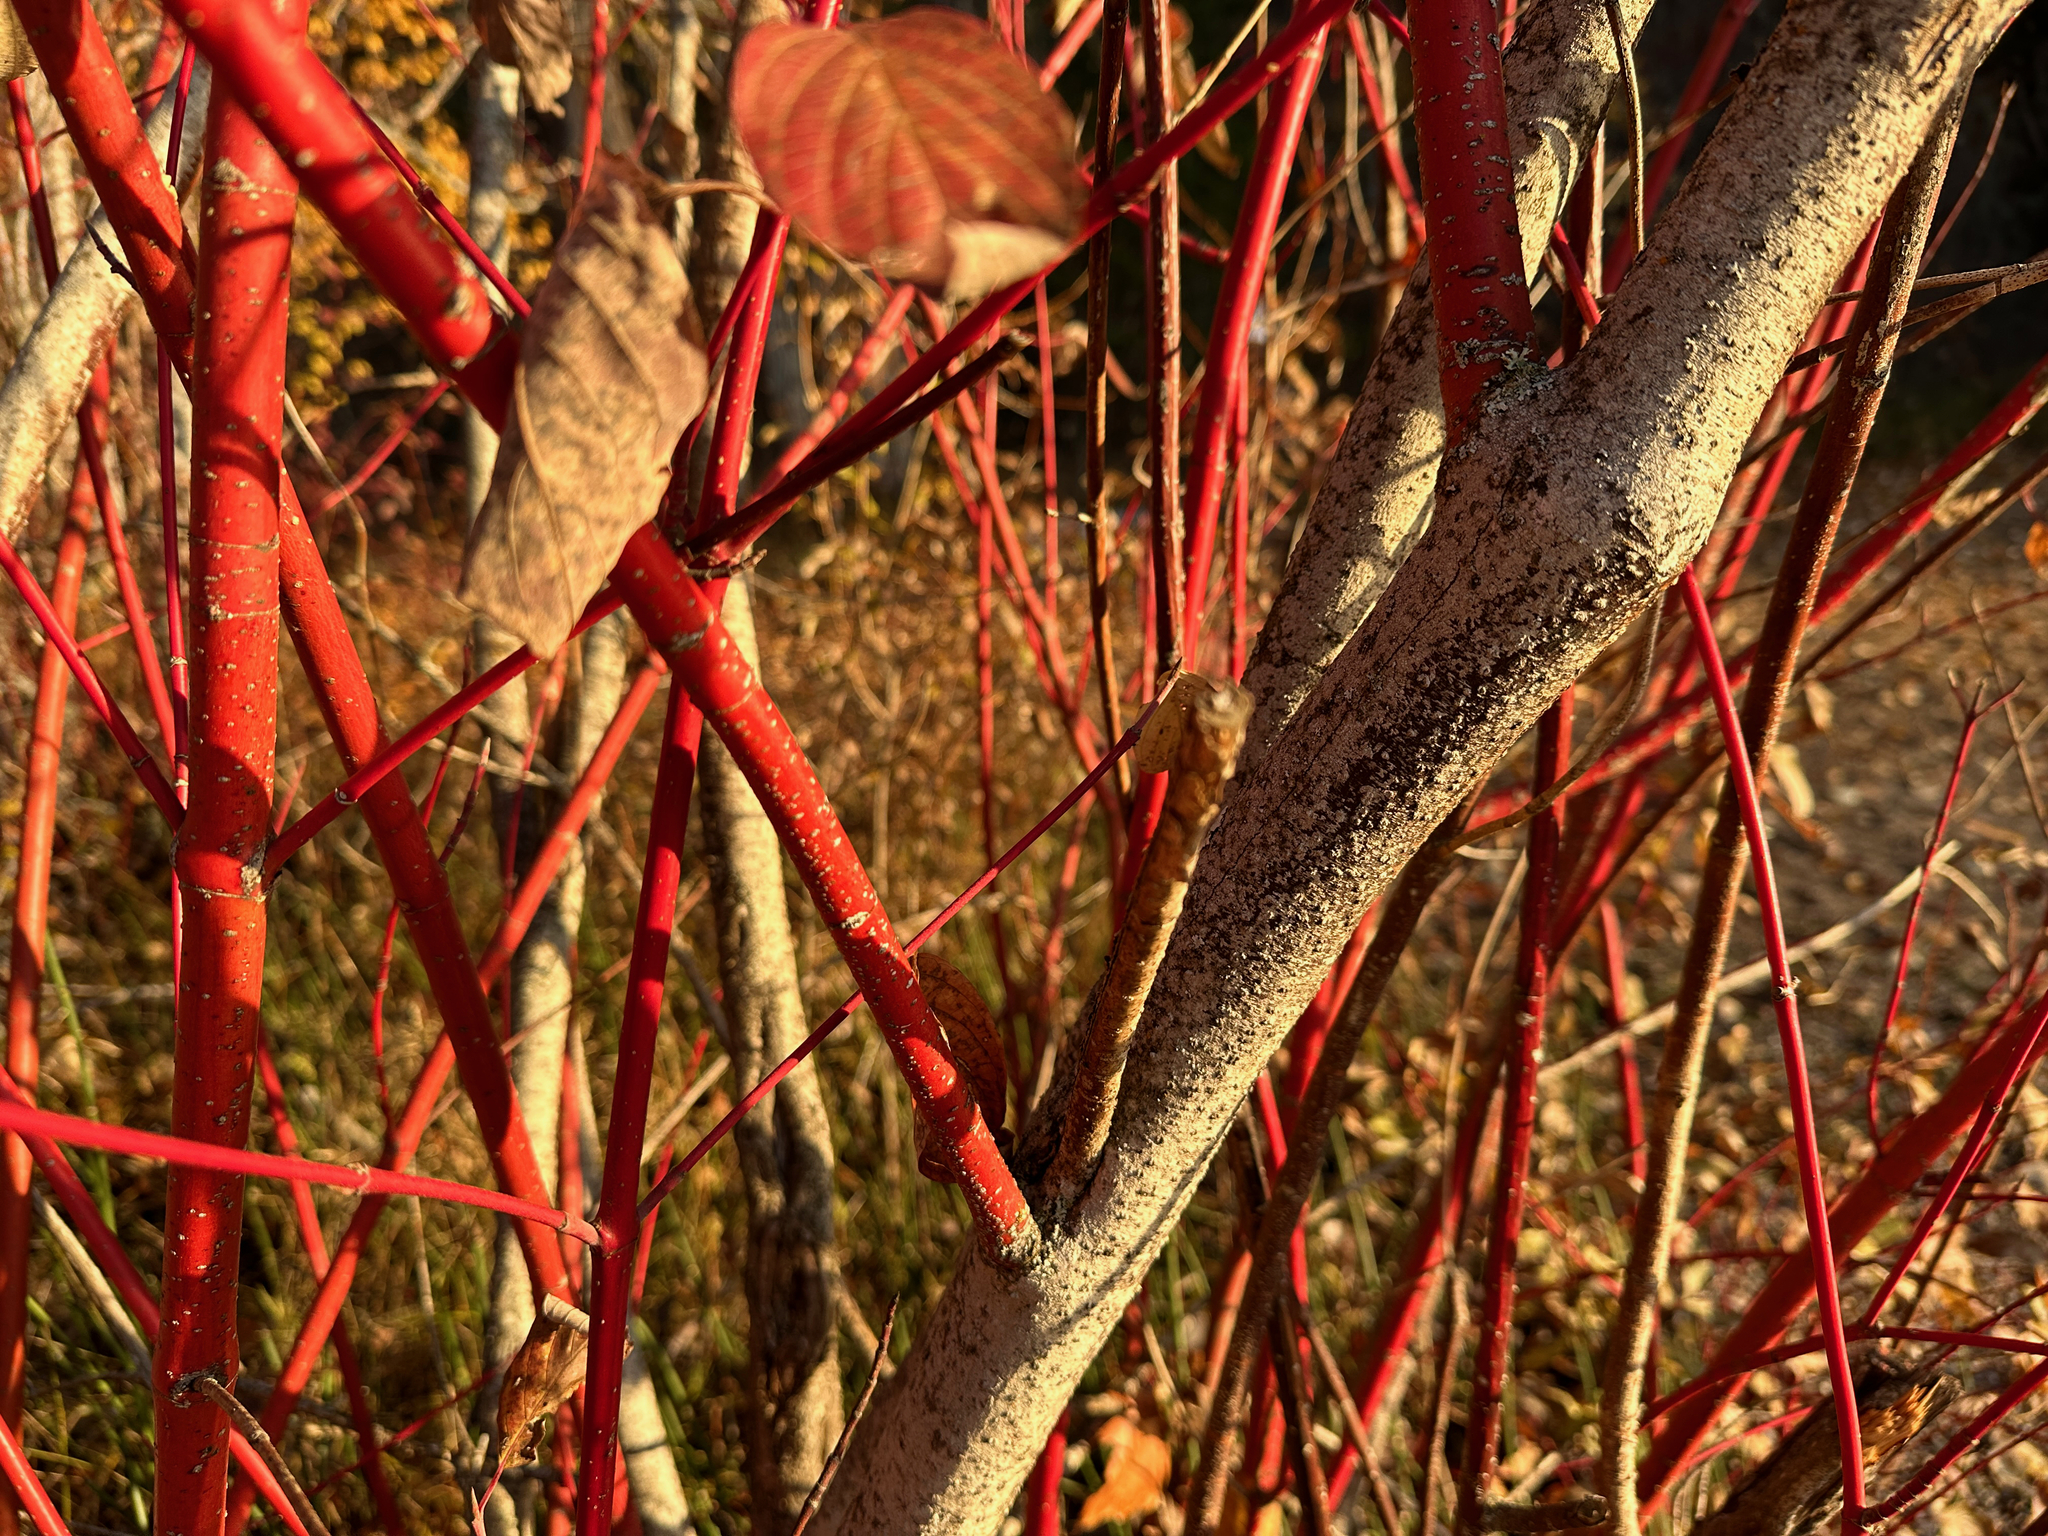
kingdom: Plantae
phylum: Tracheophyta
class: Magnoliopsida
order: Cornales
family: Cornaceae
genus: Cornus
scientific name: Cornus sericea
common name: Red-osier dogwood
